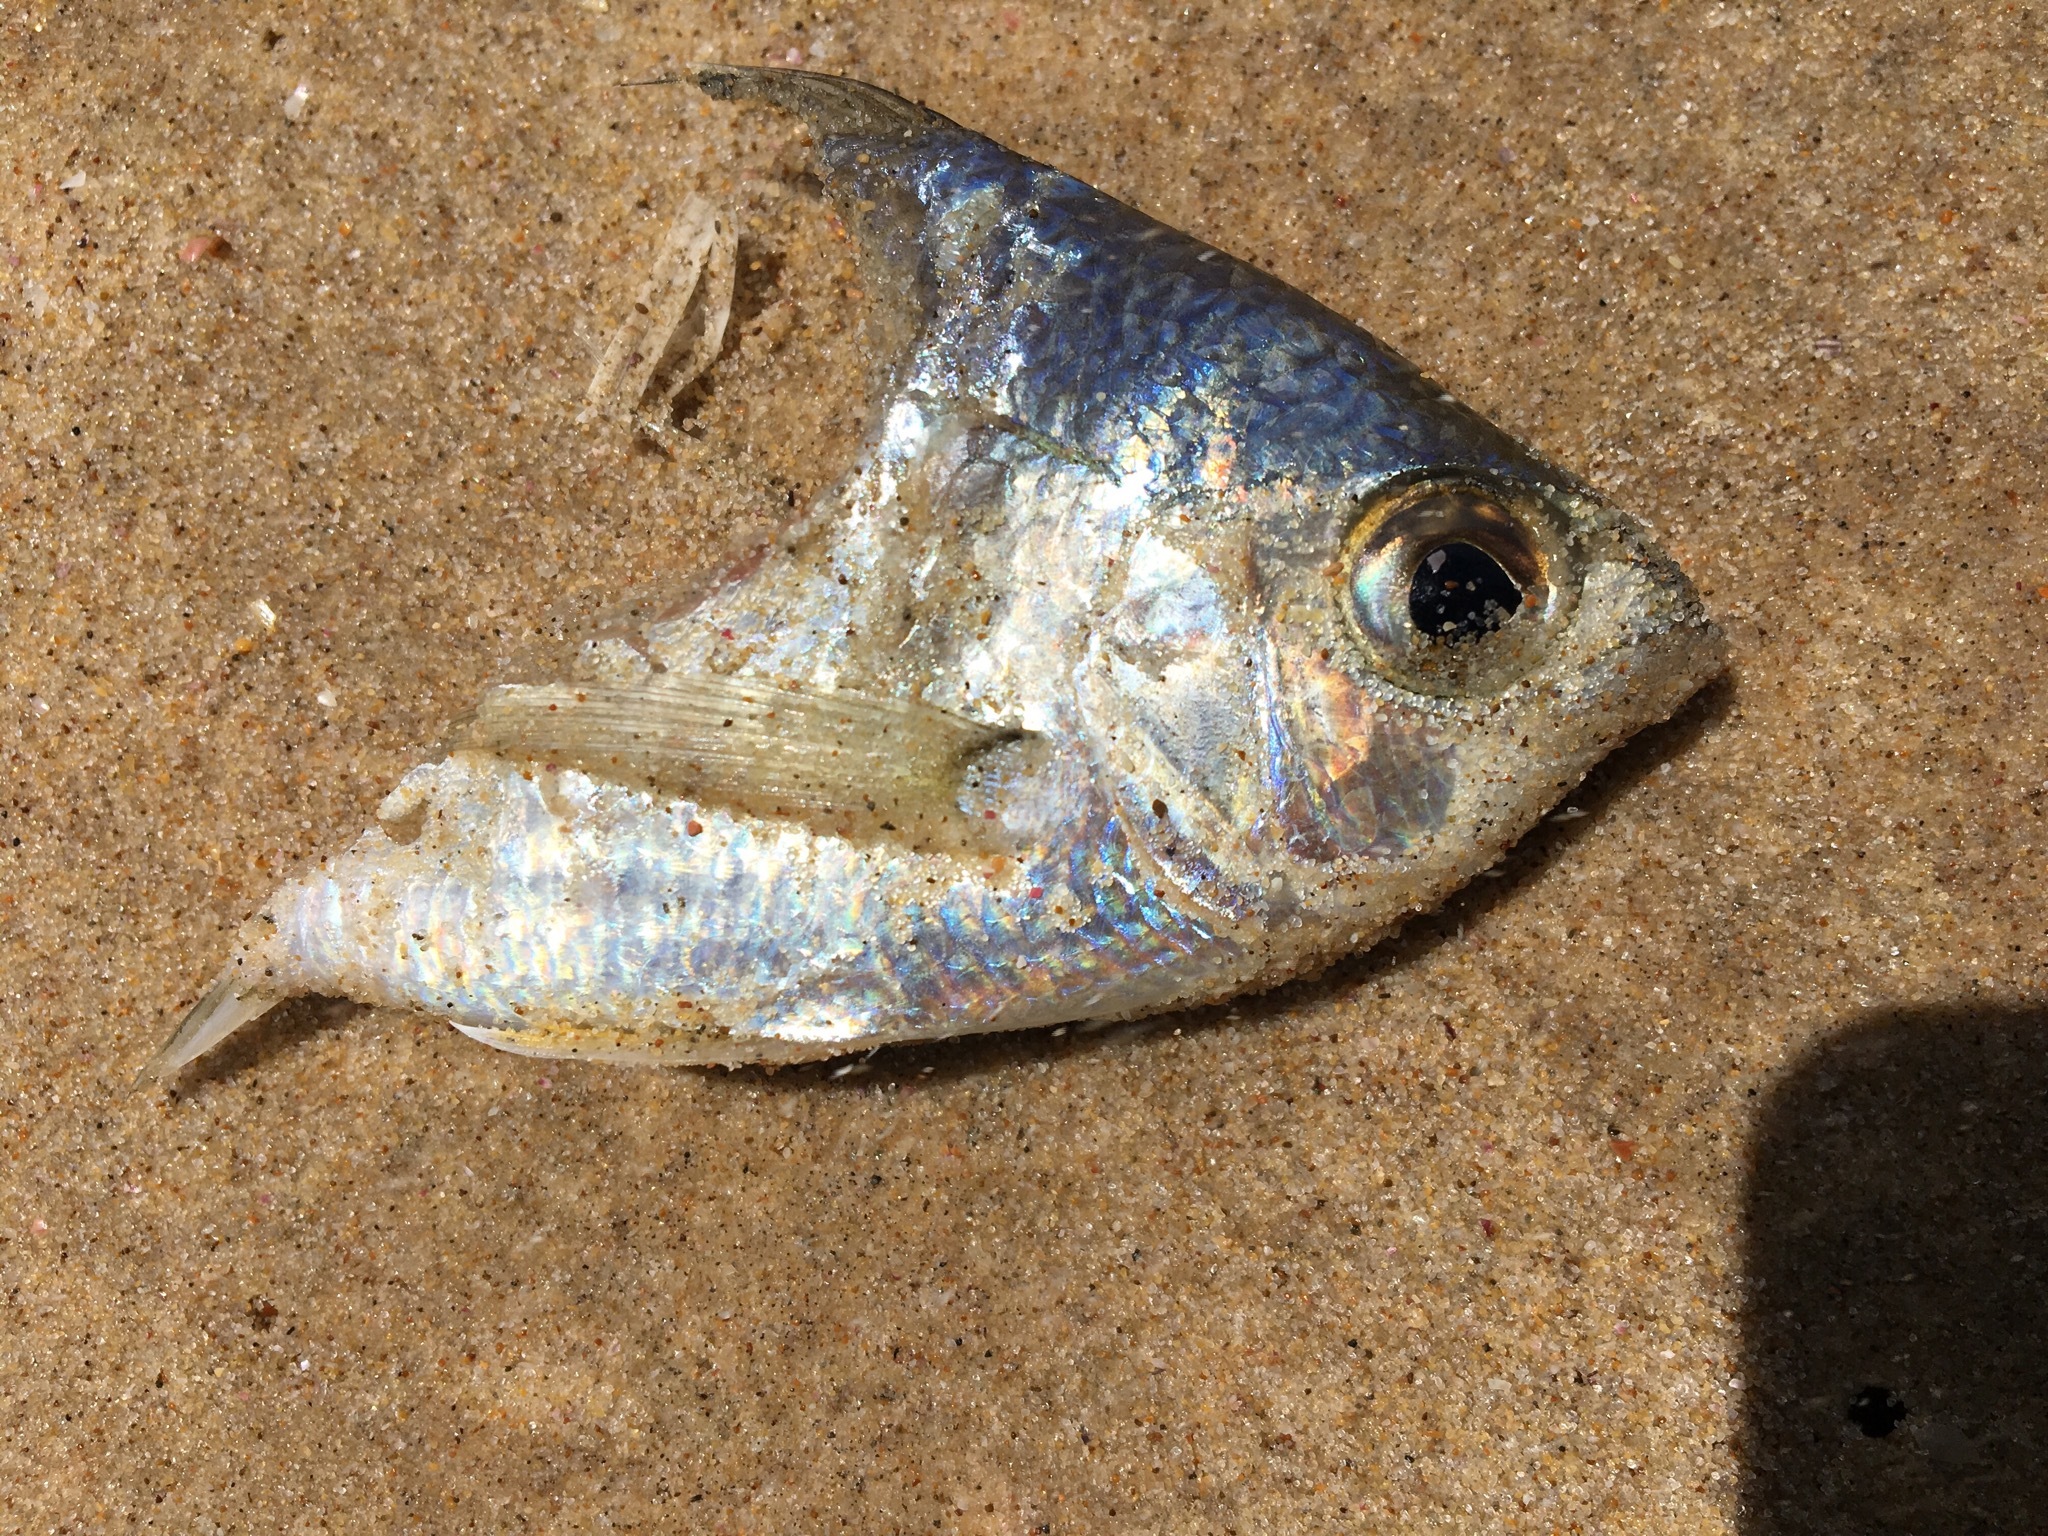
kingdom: Animalia
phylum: Chordata
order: Perciformes
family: Gerreidae
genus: Gerres
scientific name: Gerres subfasciatus
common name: Common silver belly
